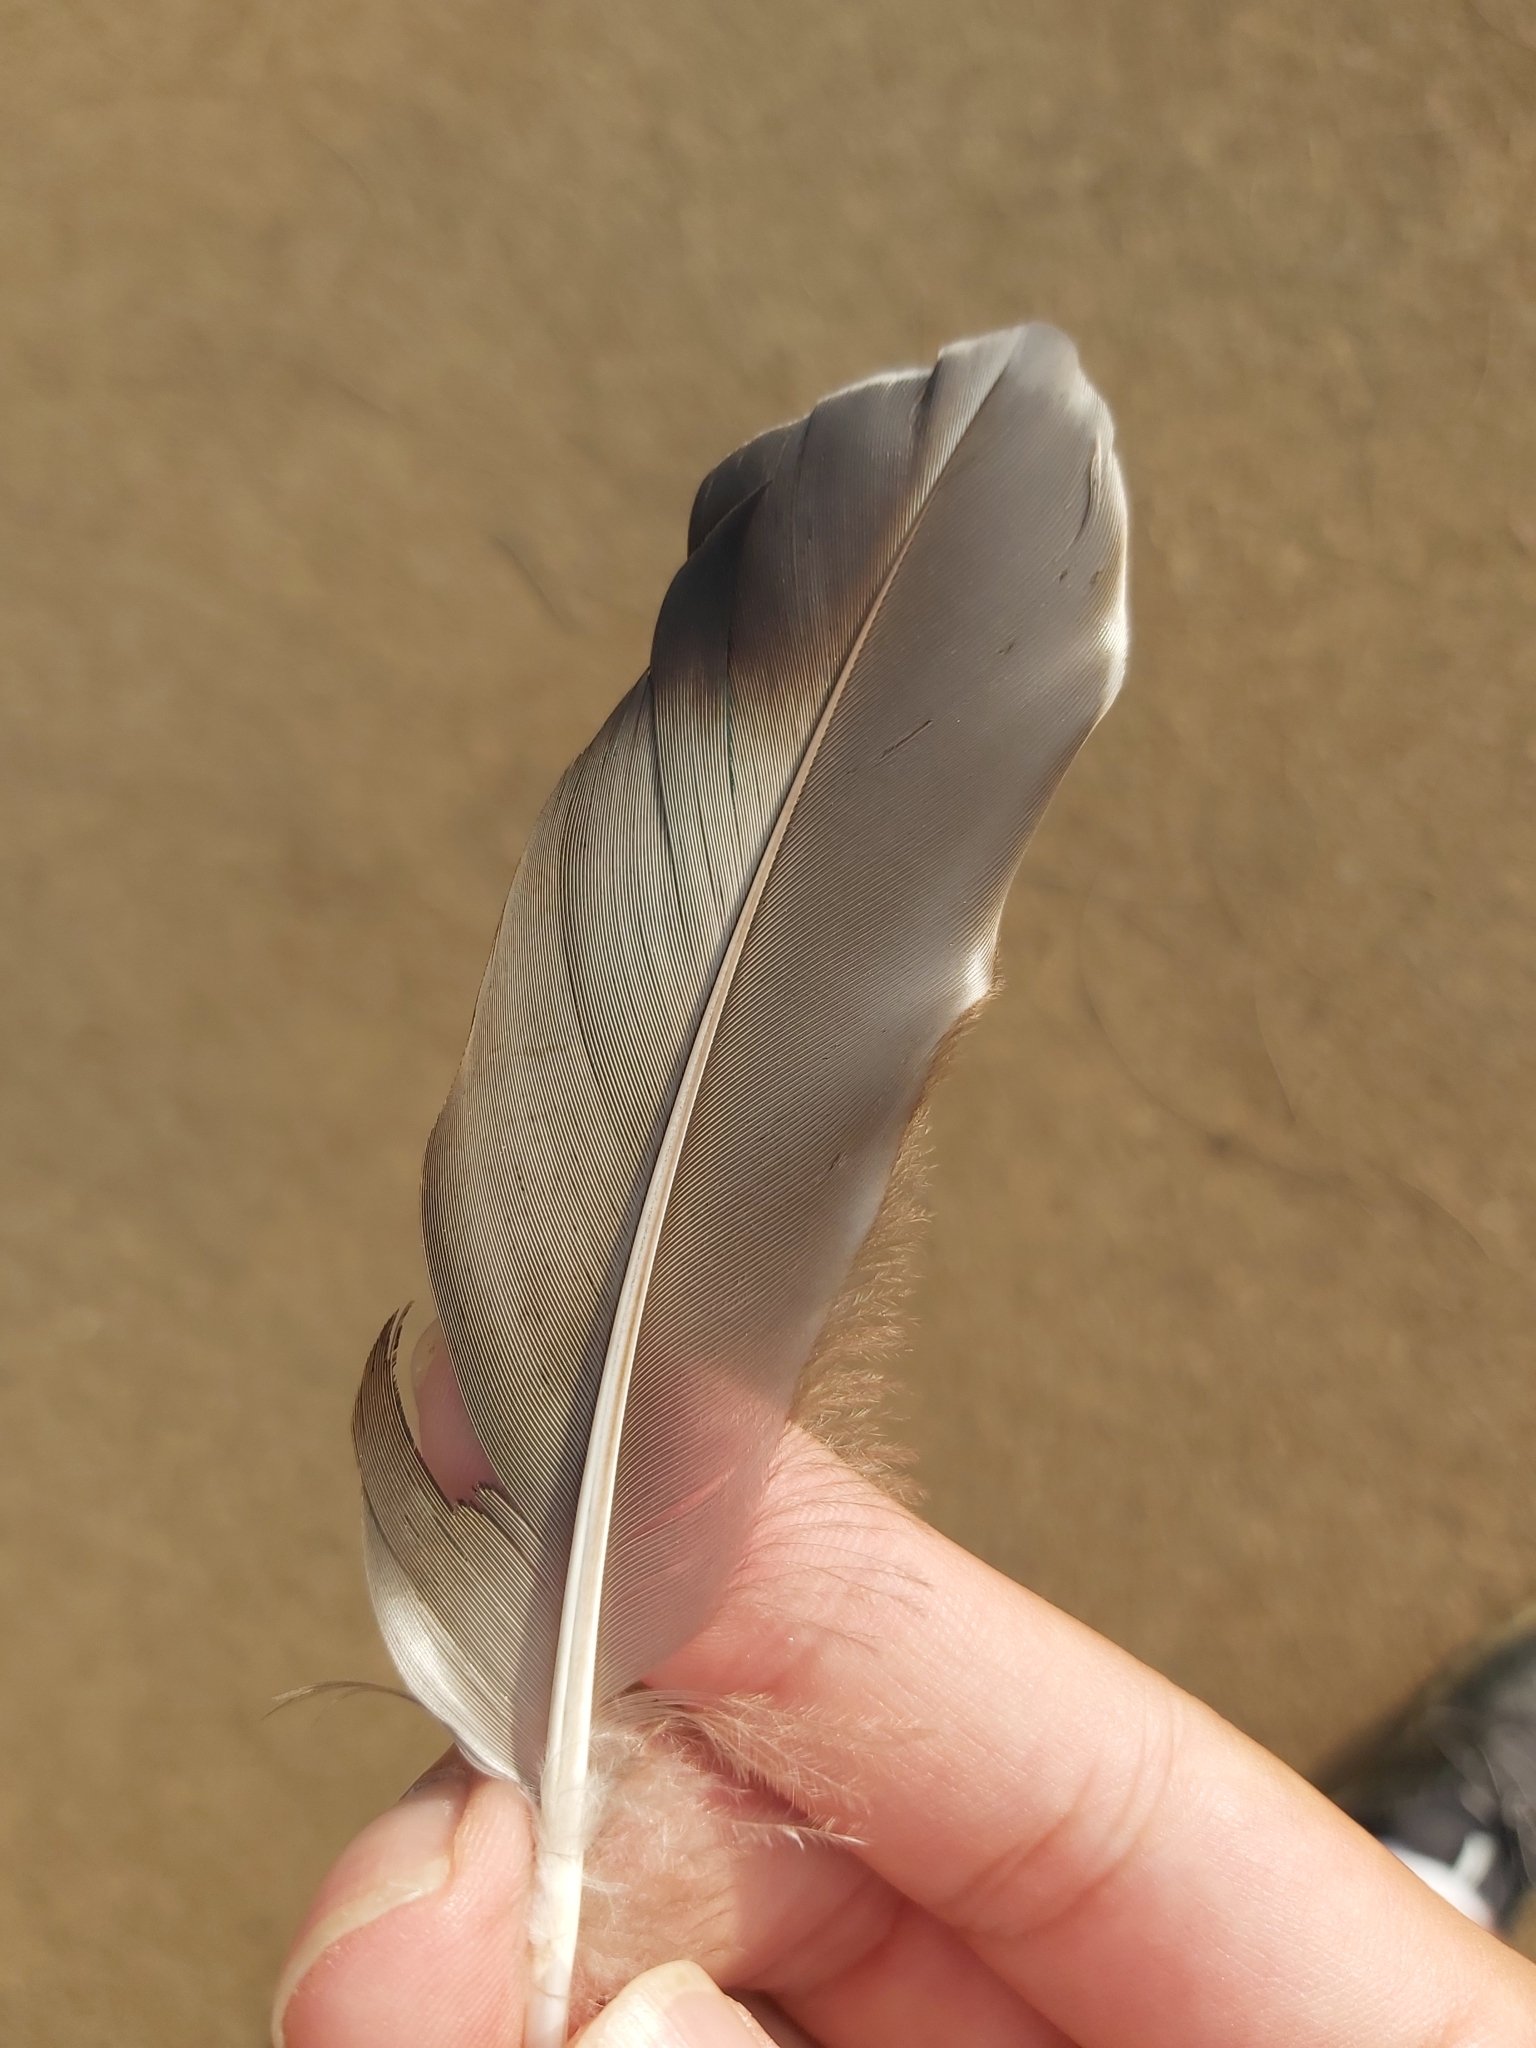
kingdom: Animalia
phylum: Chordata
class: Aves
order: Anseriformes
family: Anatidae
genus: Anas
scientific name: Anas superciliosa
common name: Pacific black duck
